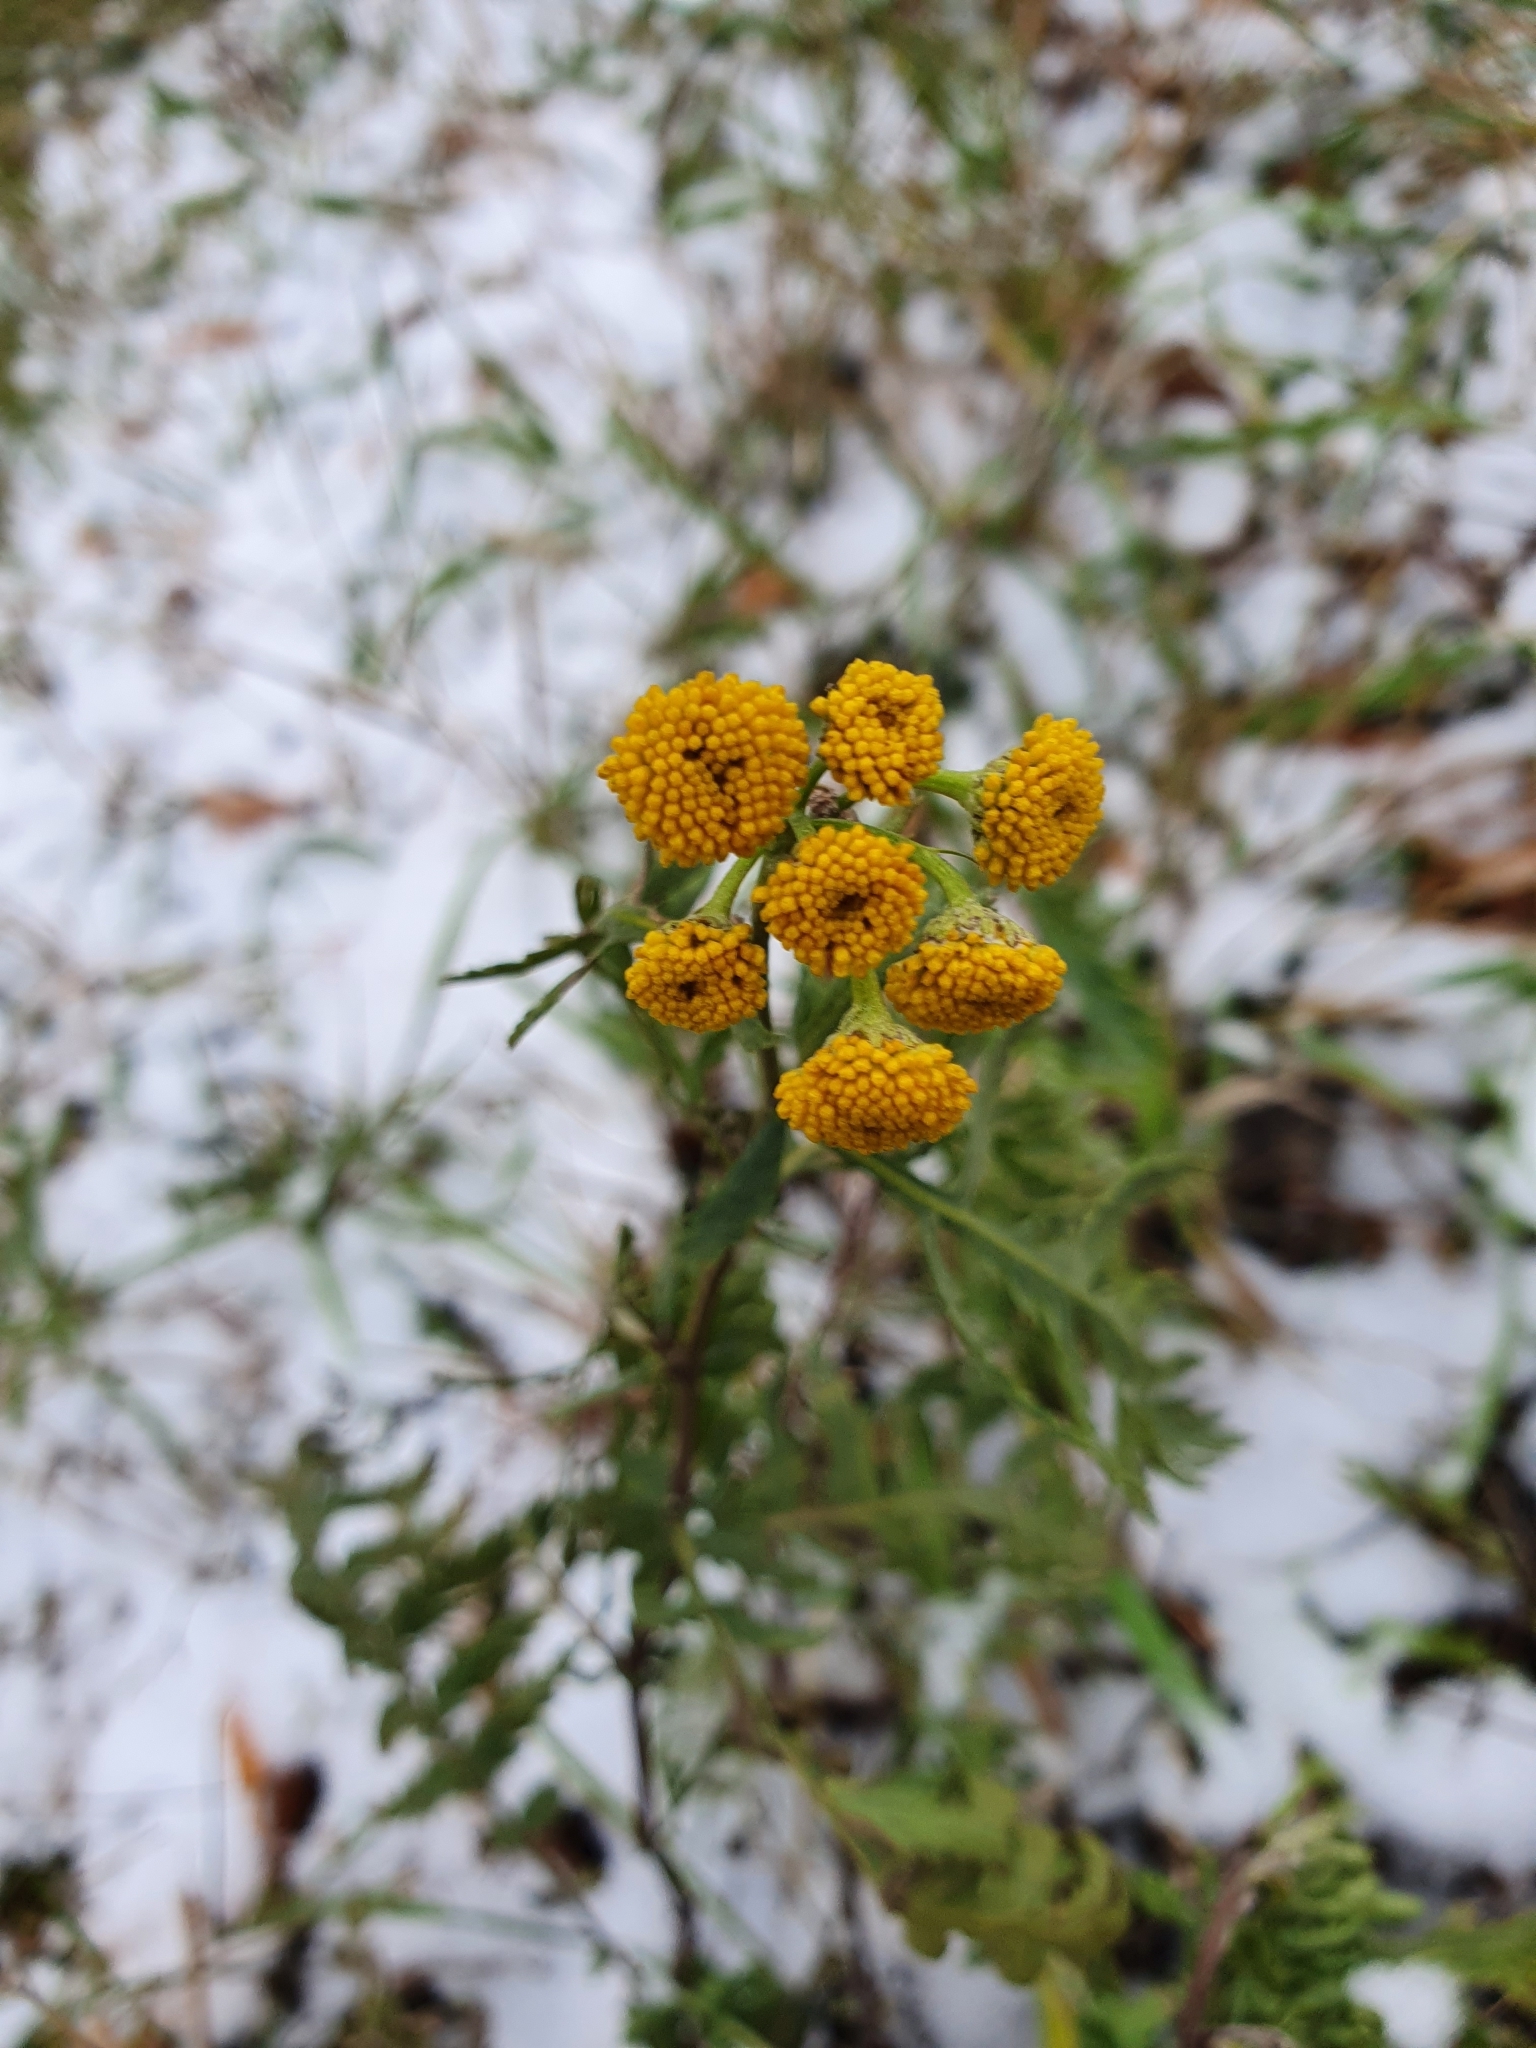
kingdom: Plantae
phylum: Tracheophyta
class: Magnoliopsida
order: Asterales
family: Asteraceae
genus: Tanacetum
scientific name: Tanacetum vulgare
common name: Common tansy
